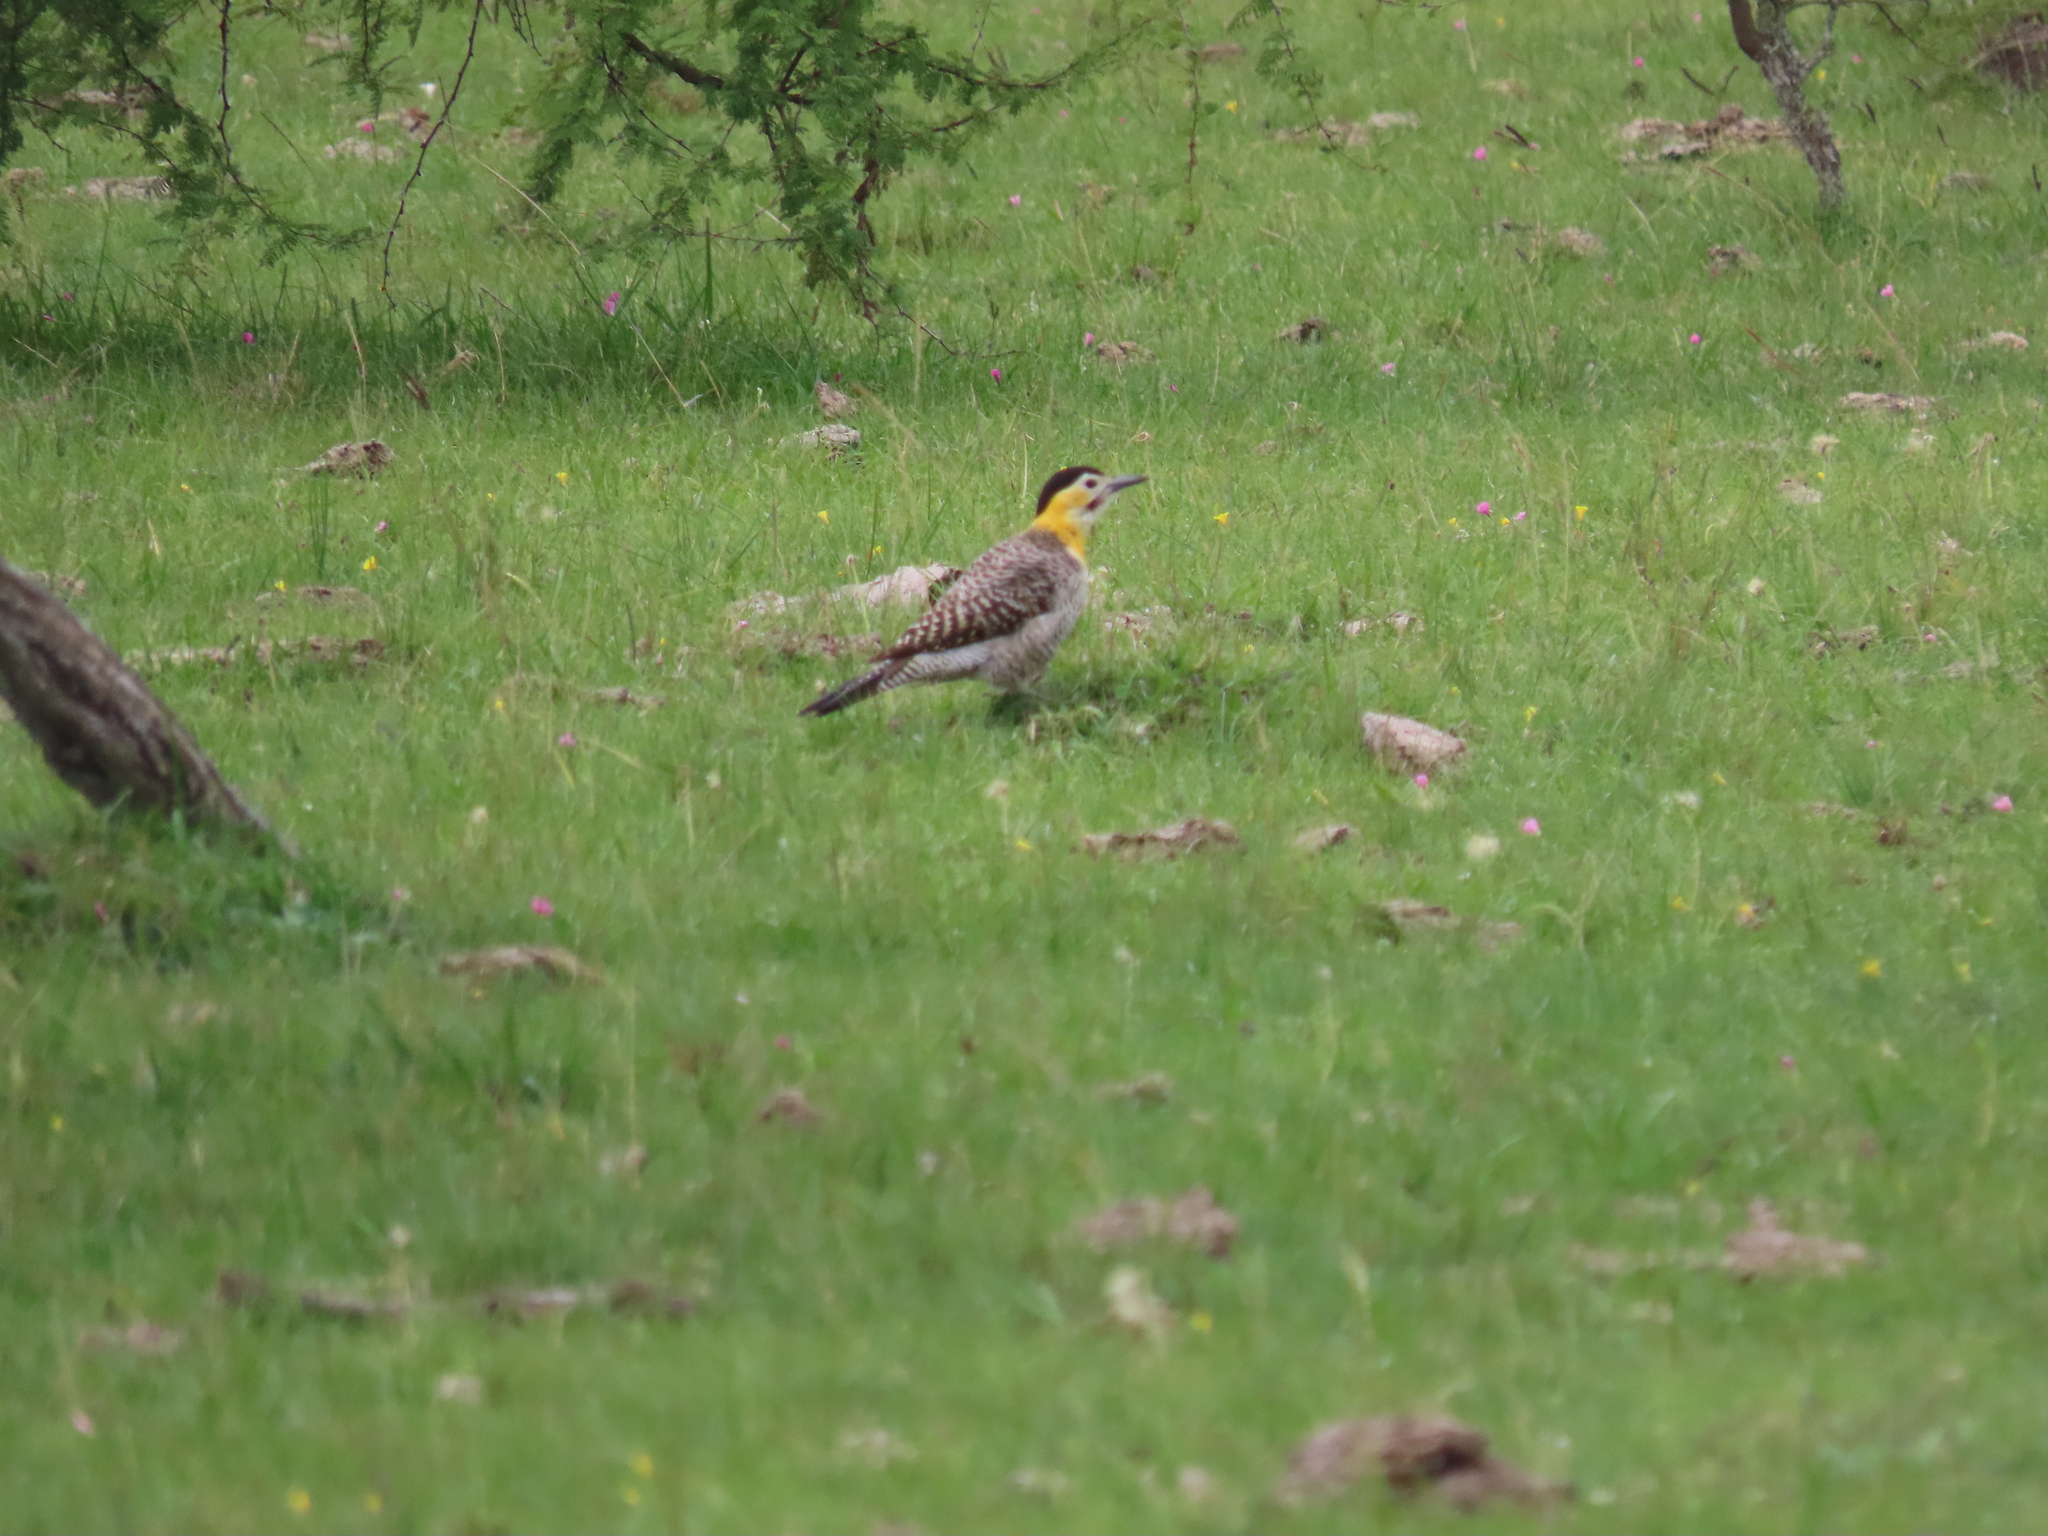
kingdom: Animalia
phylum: Chordata
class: Aves
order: Piciformes
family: Picidae
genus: Colaptes
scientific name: Colaptes campestris
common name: Campo flicker
